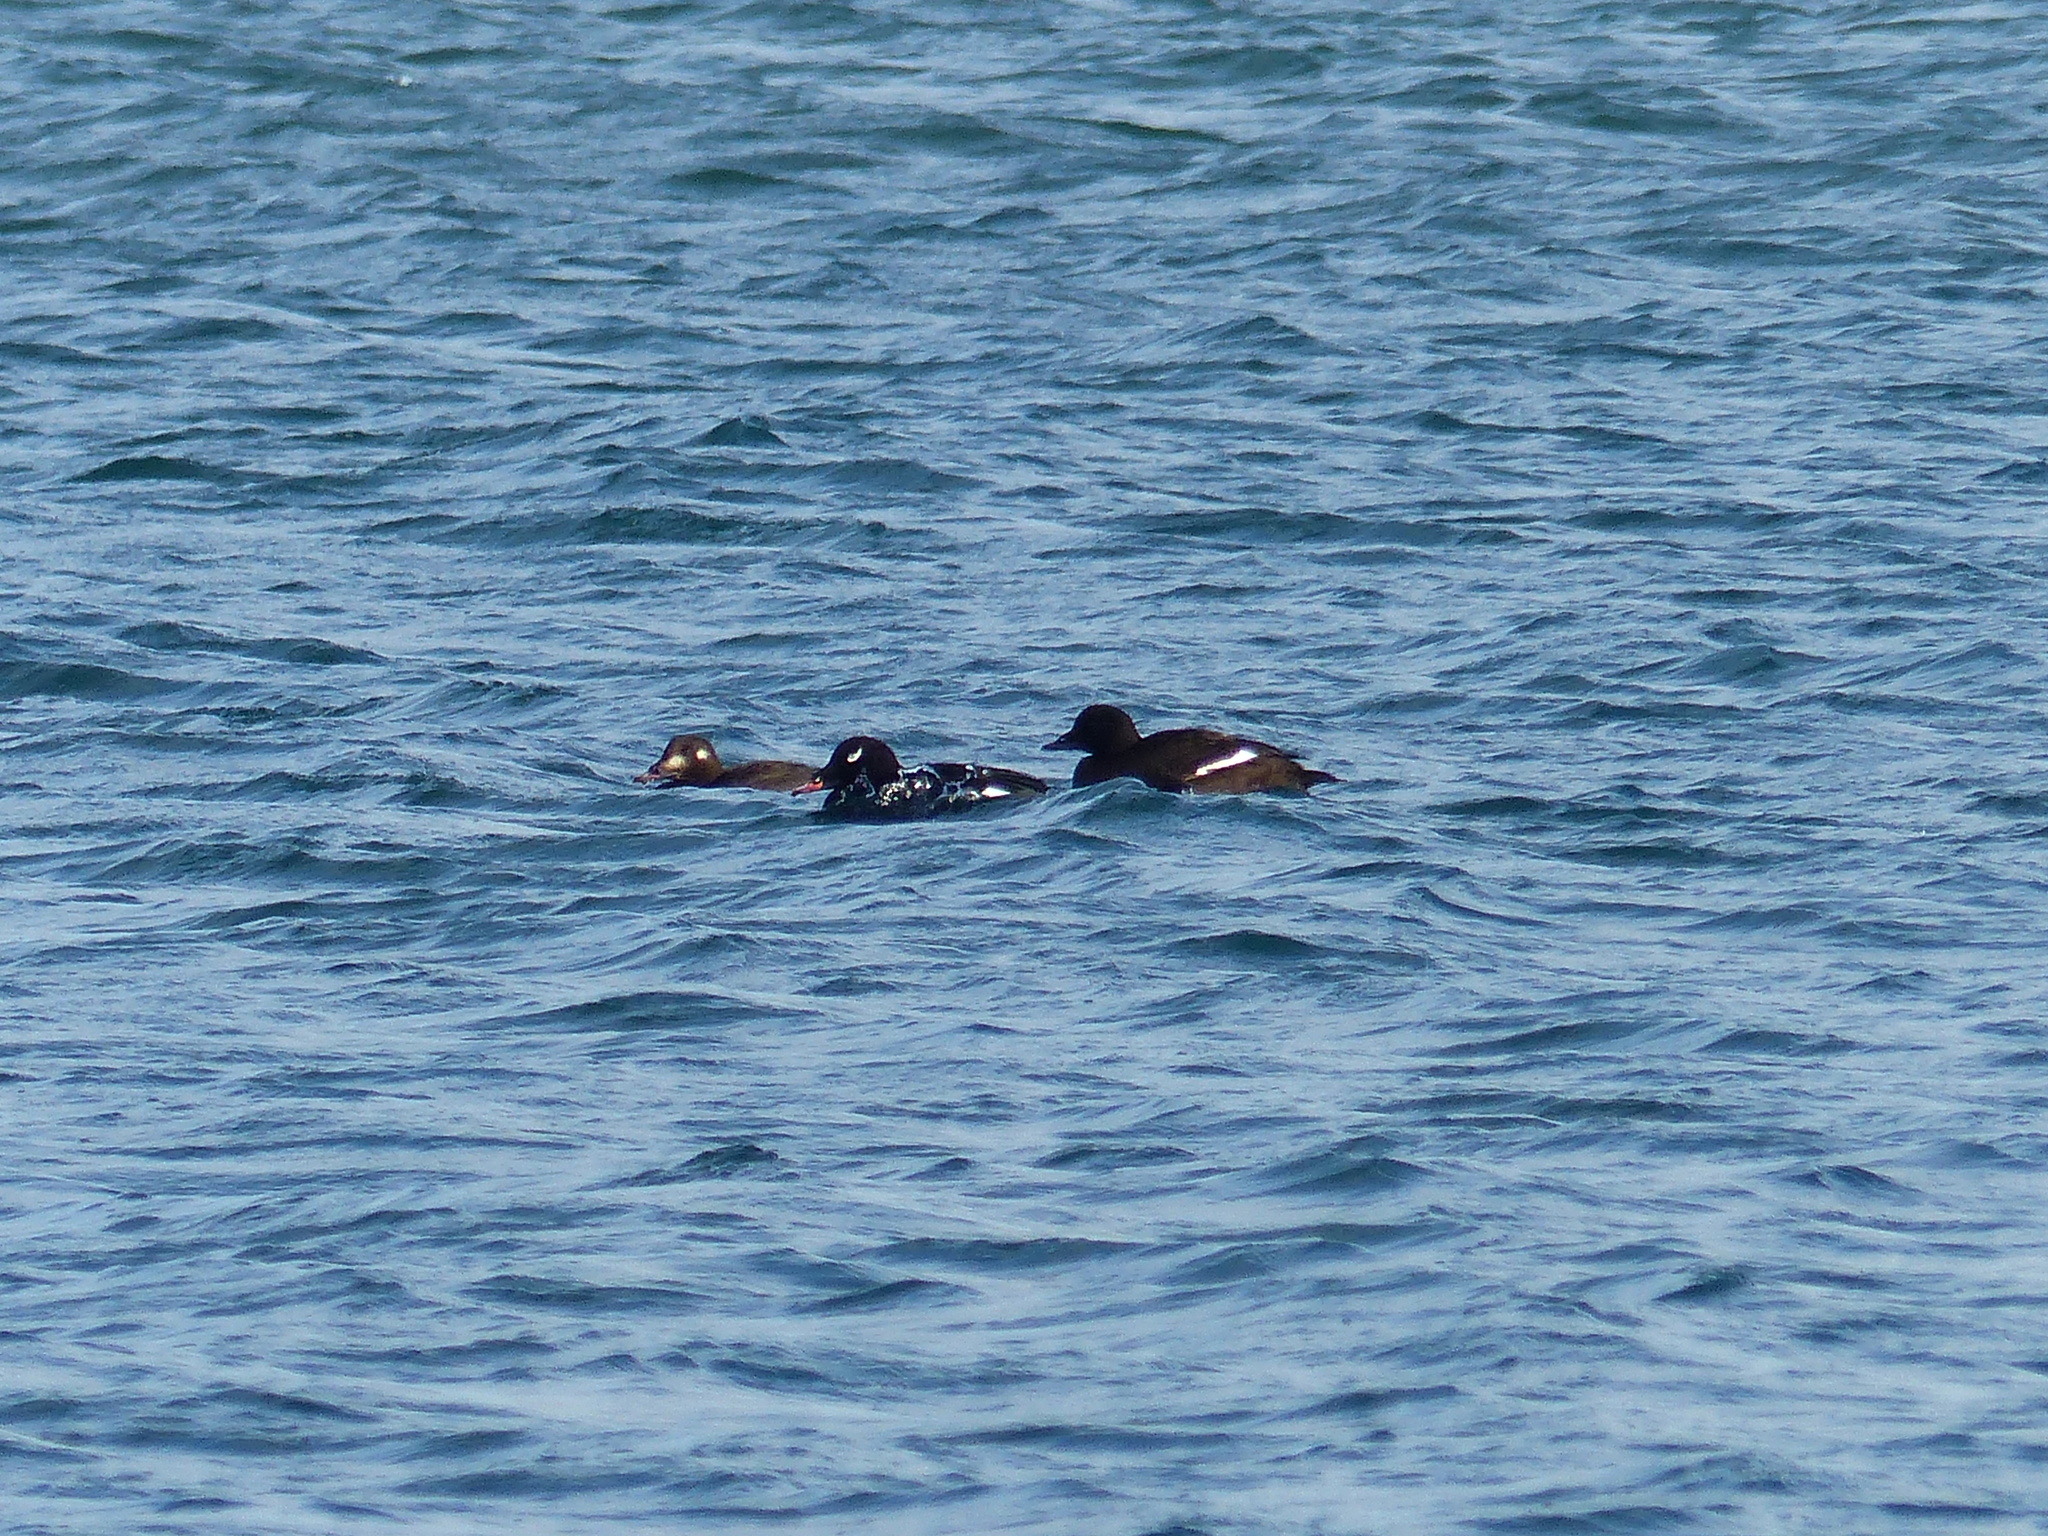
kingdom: Animalia
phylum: Chordata
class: Aves
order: Anseriformes
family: Anatidae
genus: Melanitta
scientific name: Melanitta deglandi
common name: White-winged scoter
